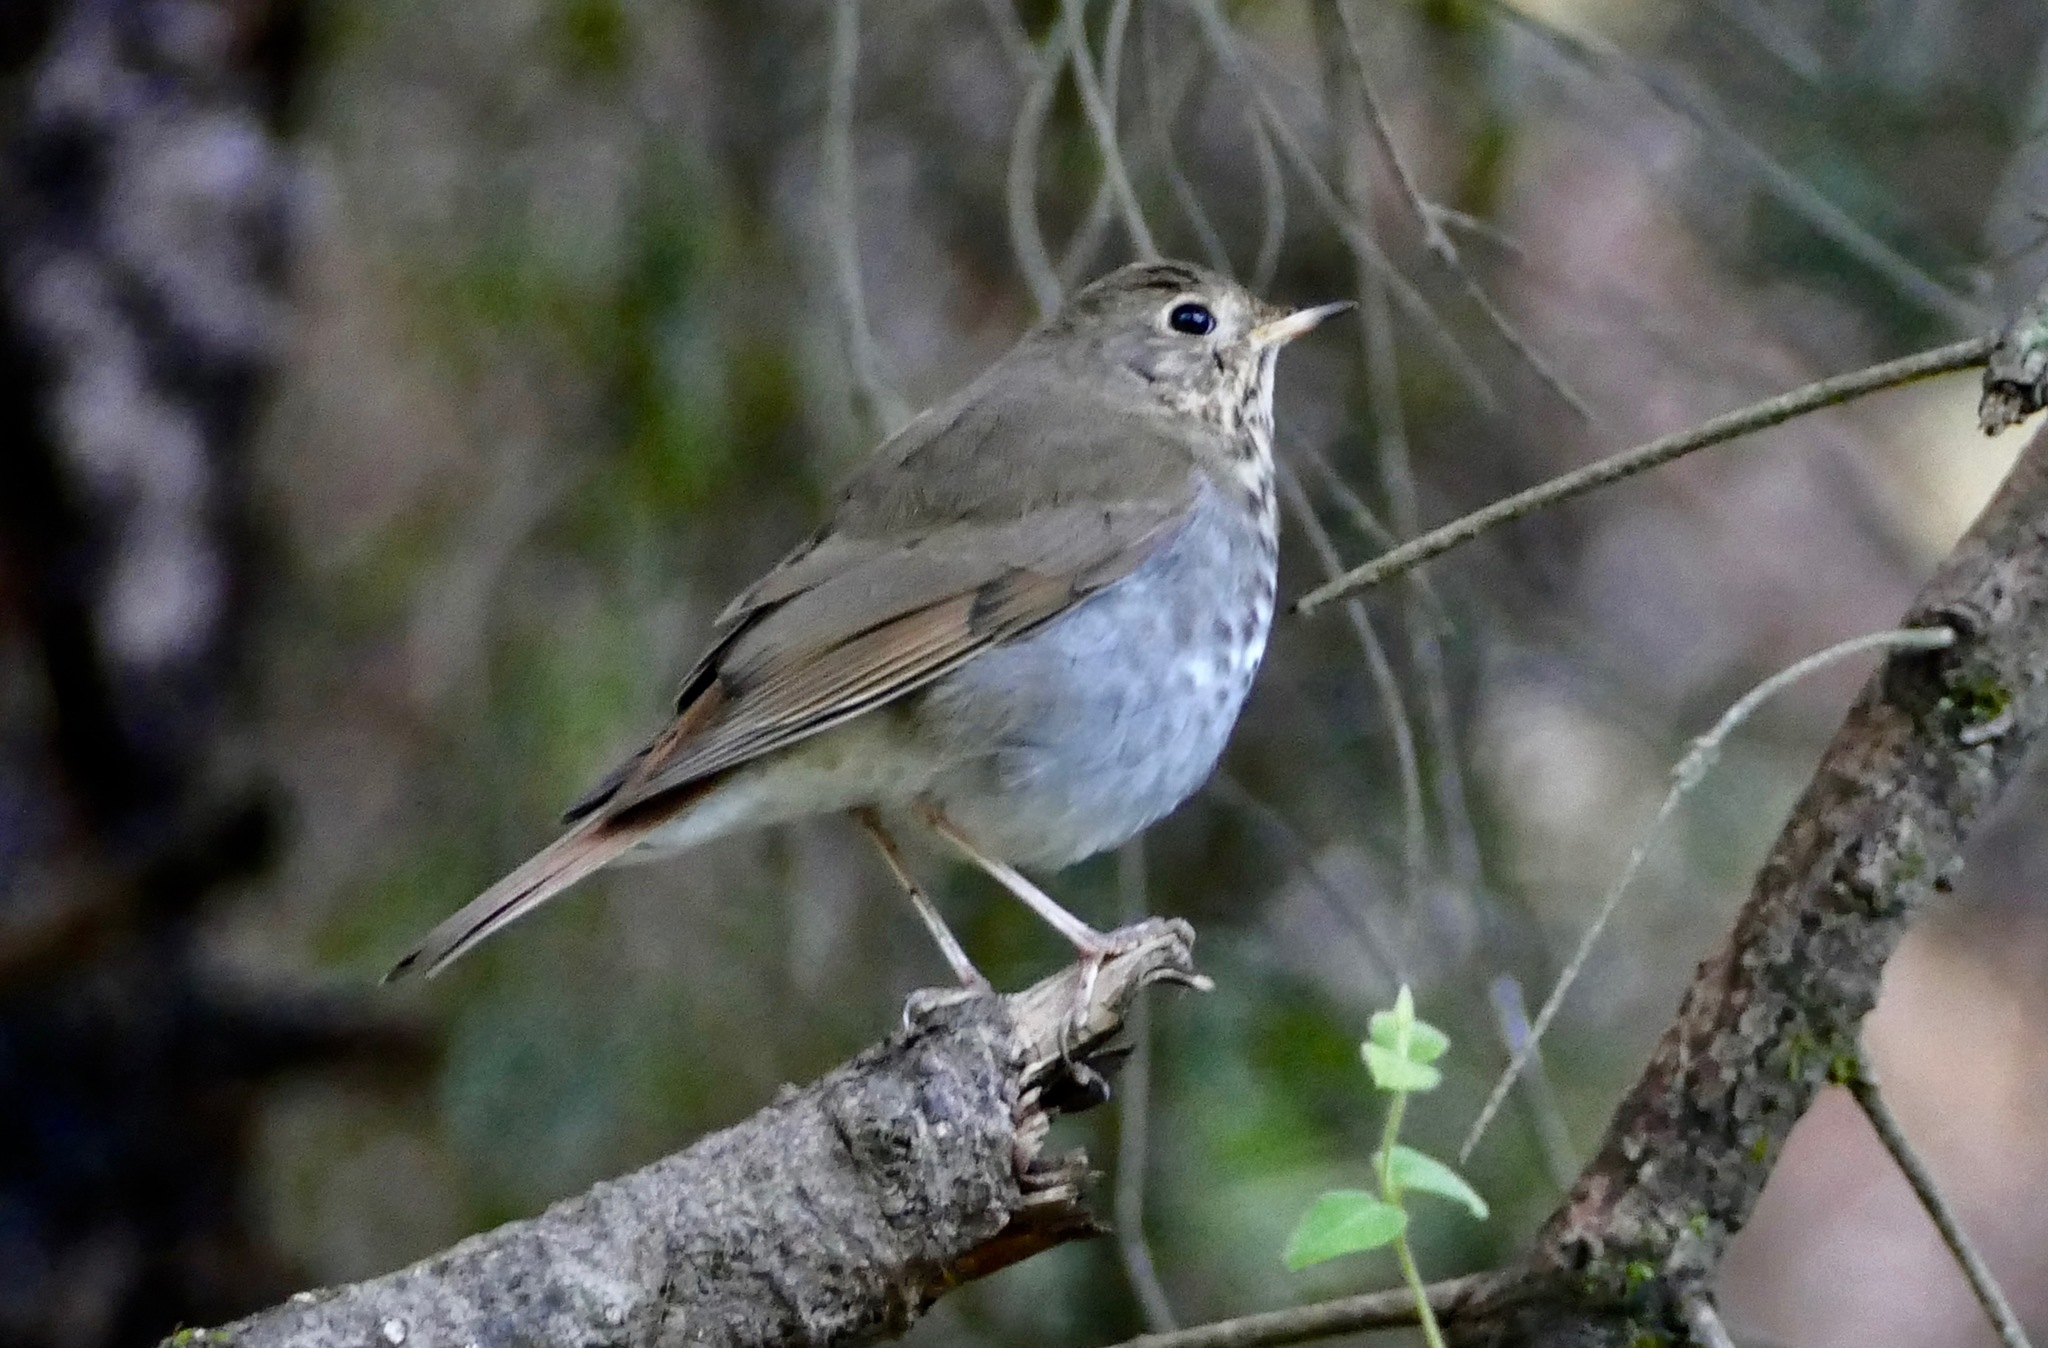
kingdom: Animalia
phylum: Chordata
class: Aves
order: Passeriformes
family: Turdidae
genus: Catharus
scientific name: Catharus guttatus
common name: Hermit thrush
